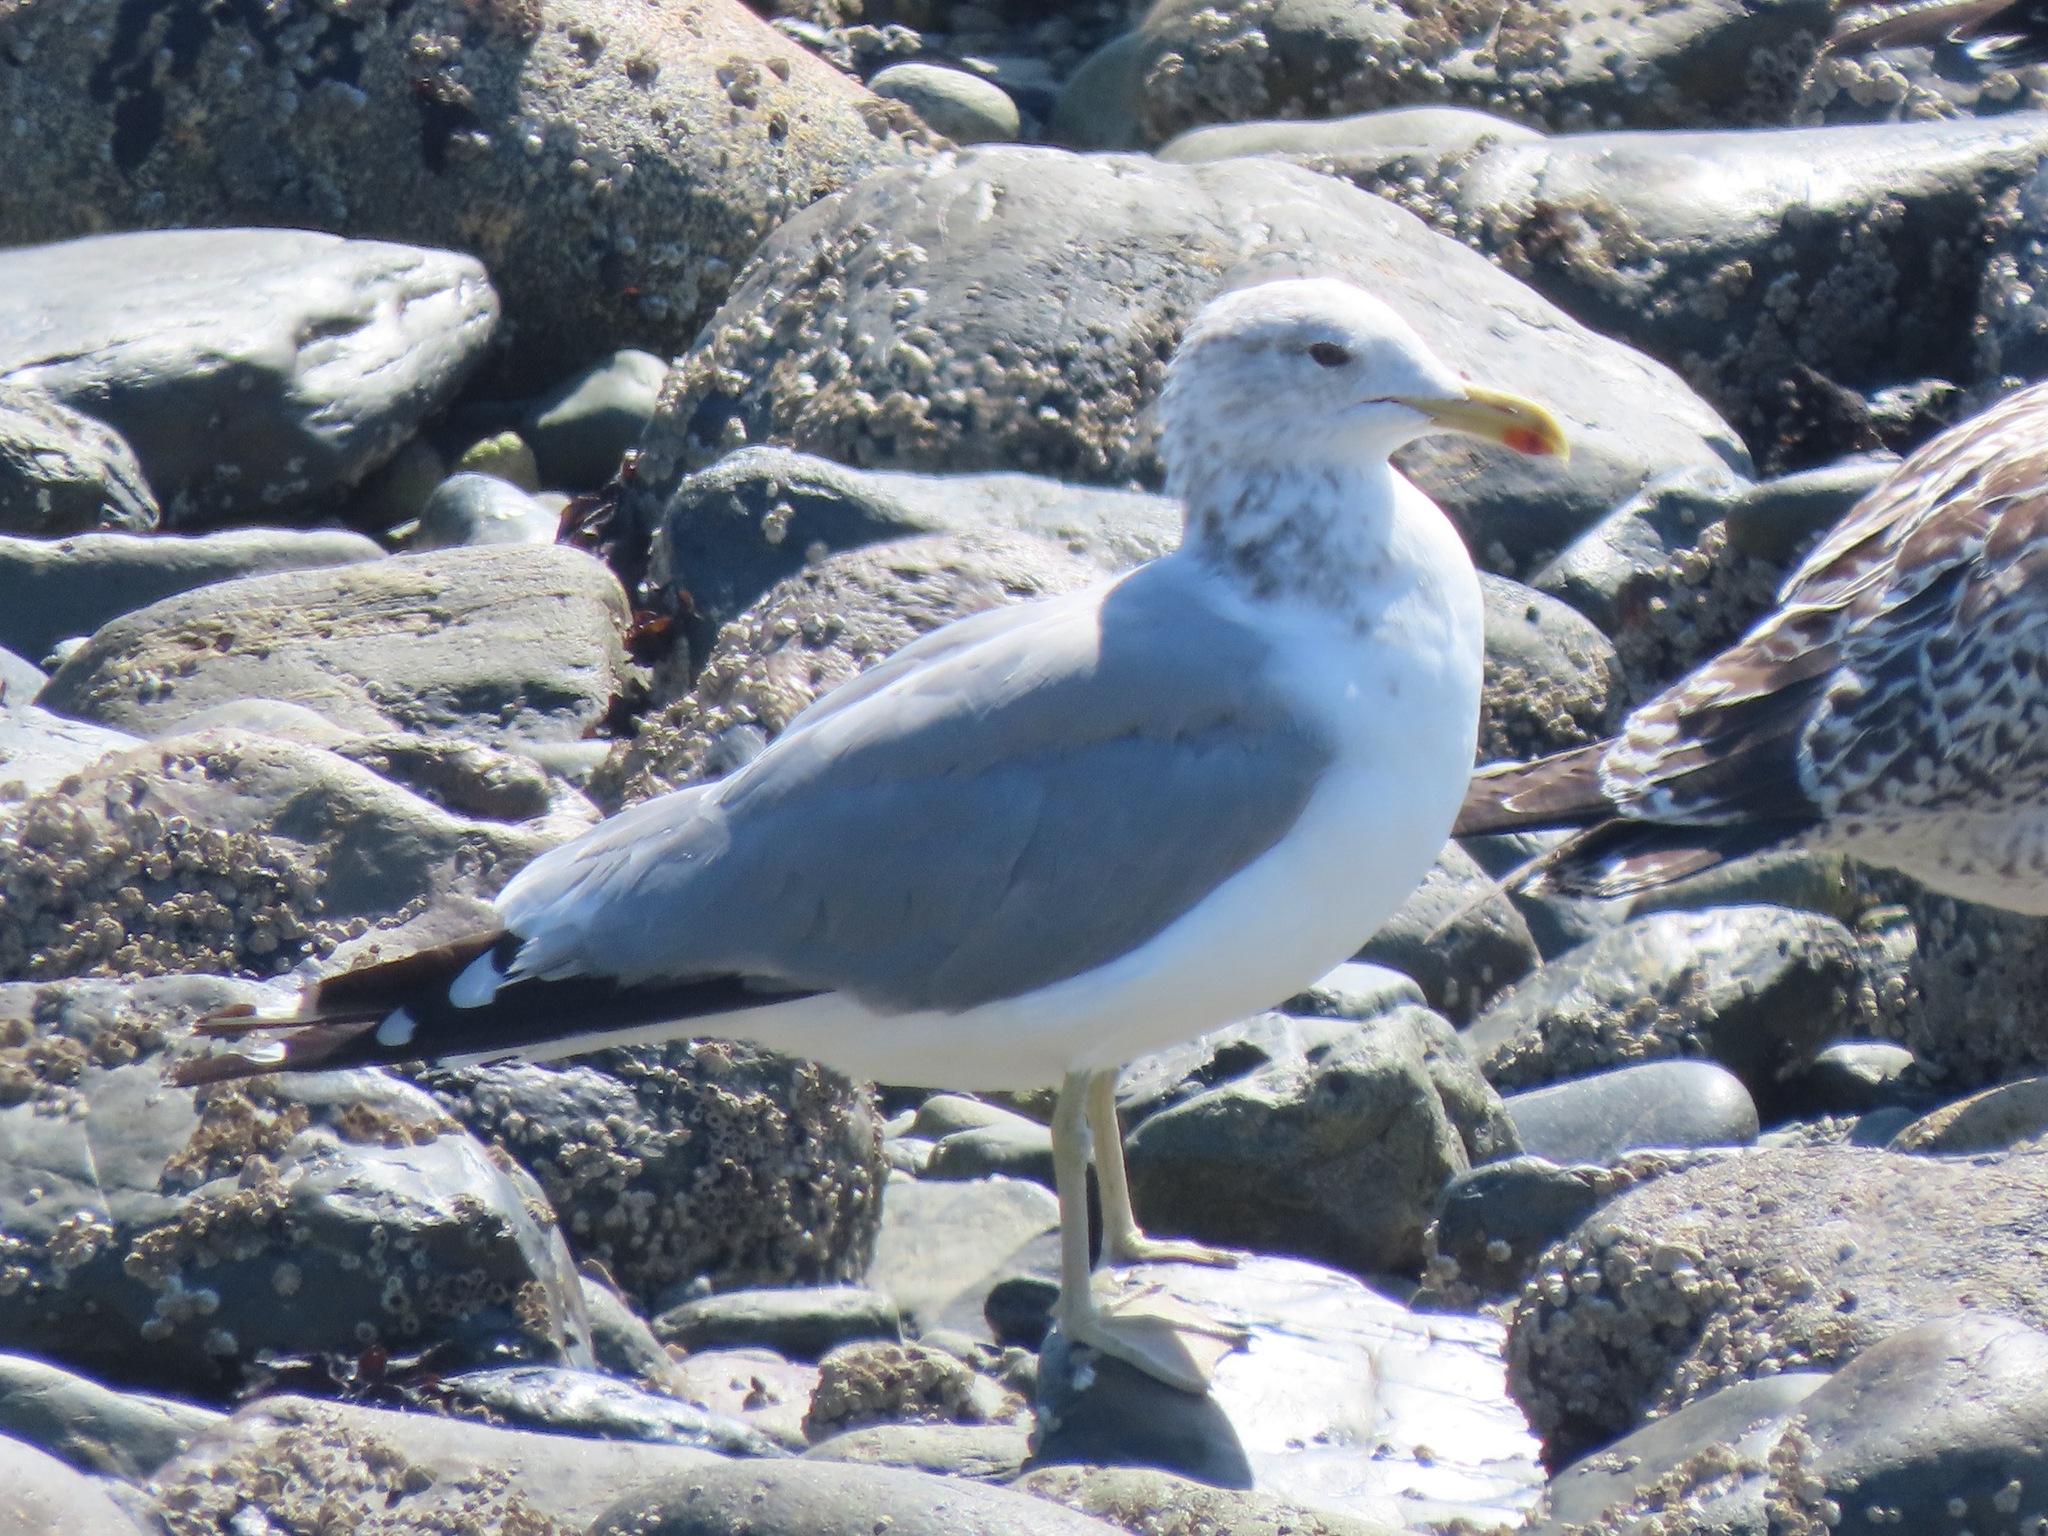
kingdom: Animalia
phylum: Chordata
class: Aves
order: Charadriiformes
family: Laridae
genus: Larus
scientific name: Larus californicus
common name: California gull
